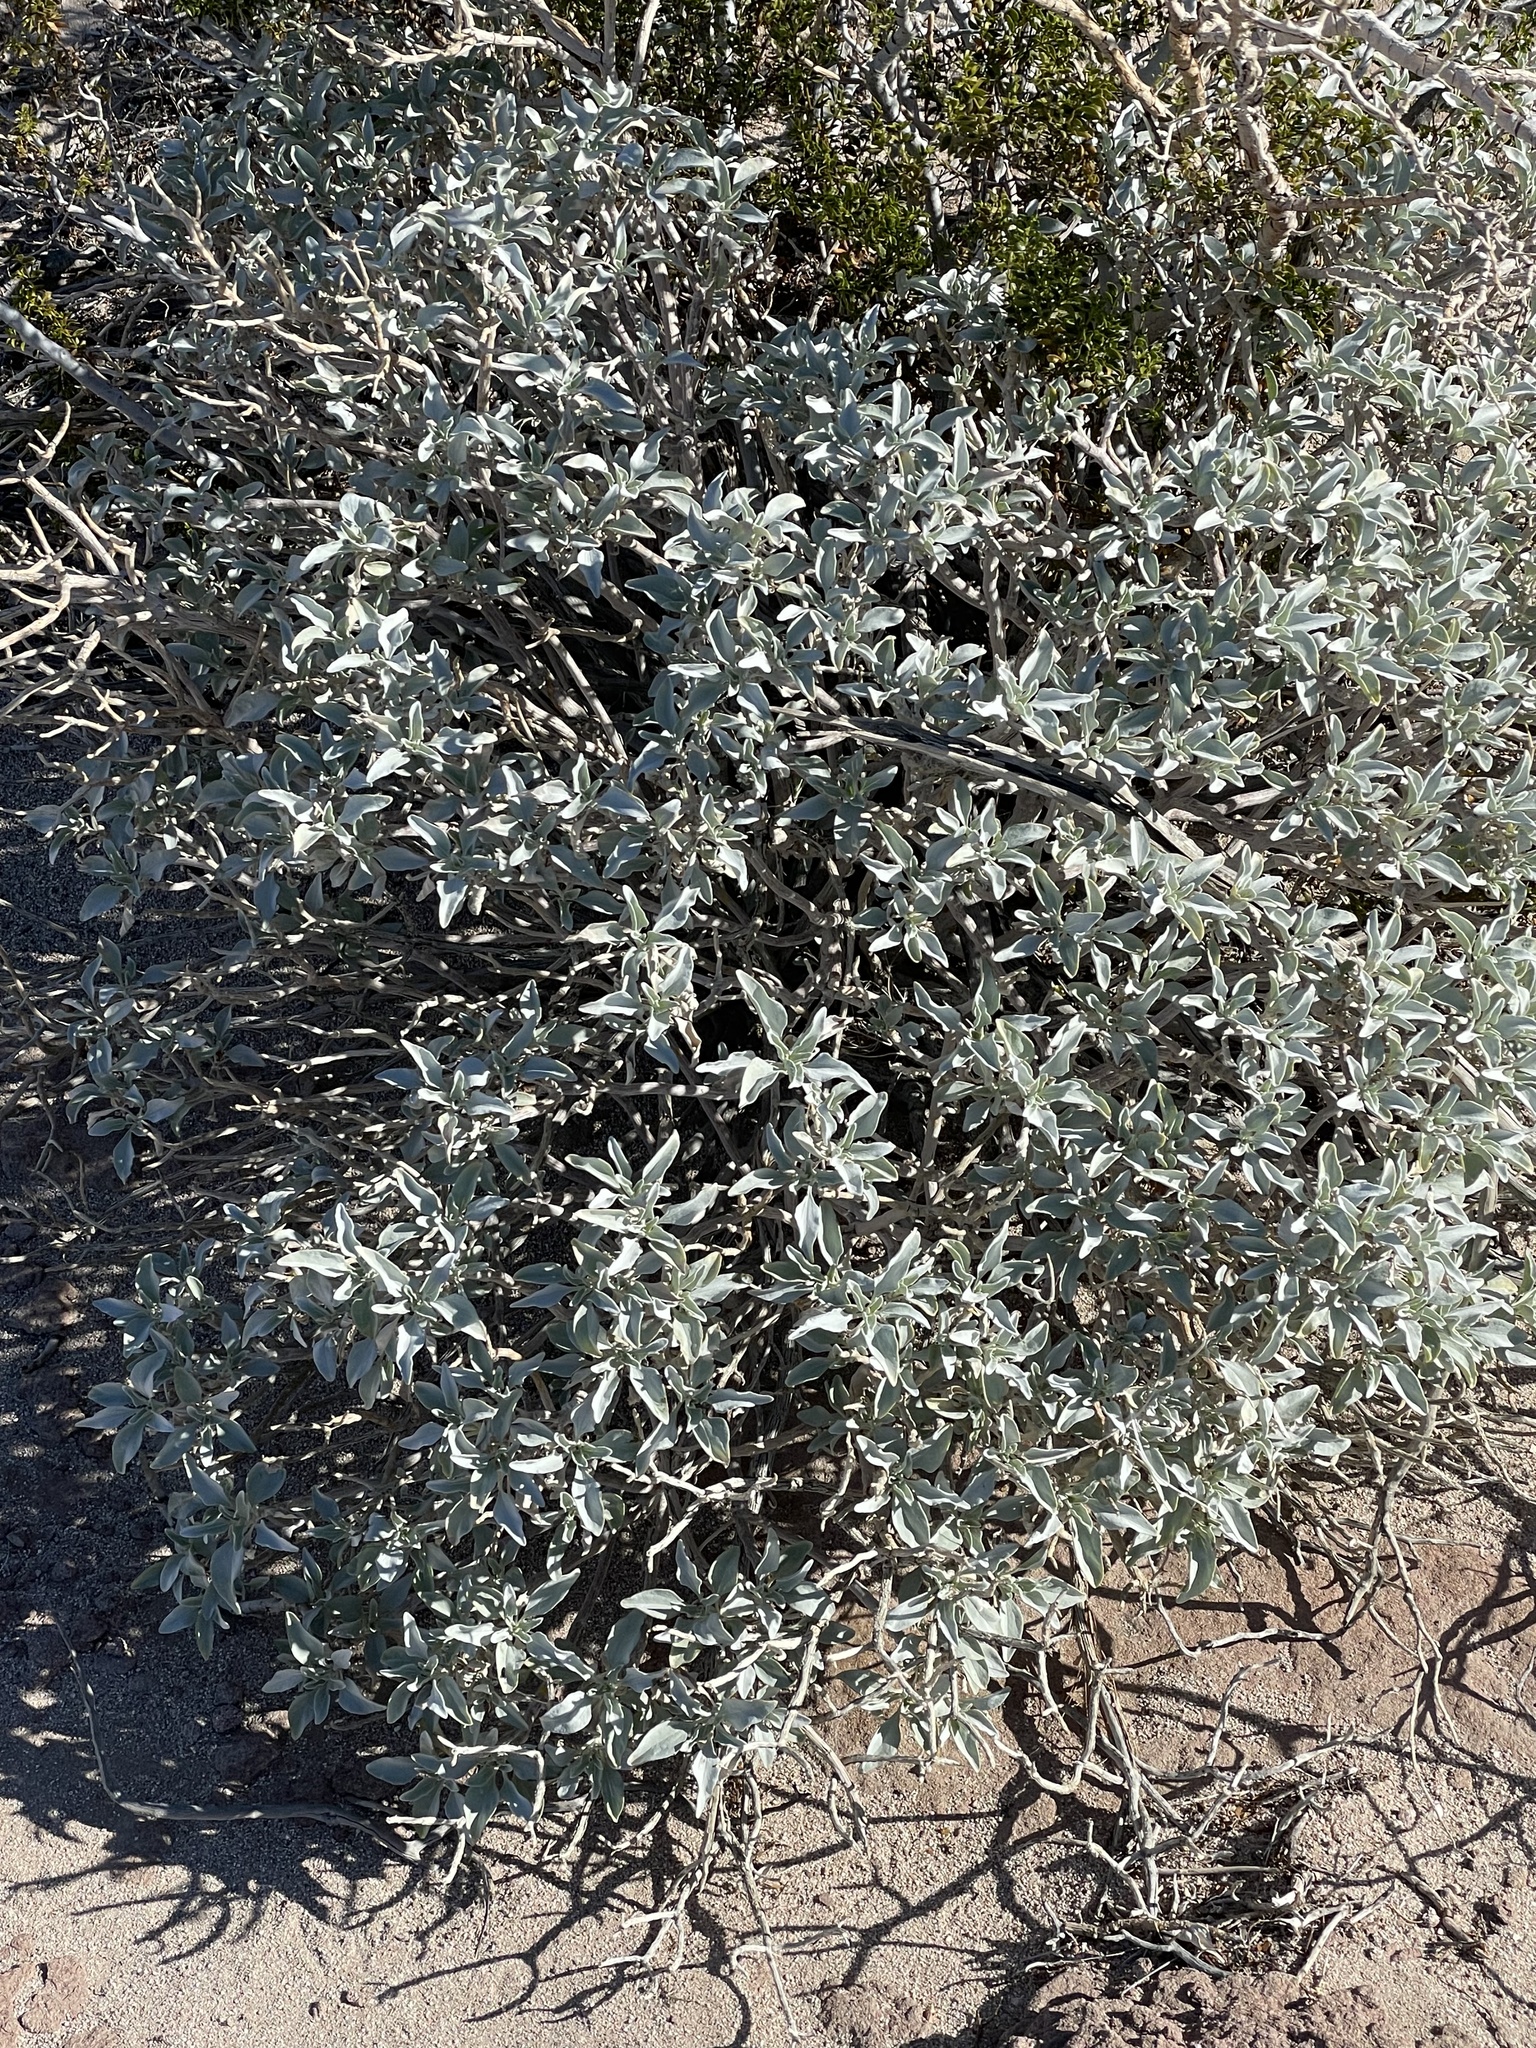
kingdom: Plantae
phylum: Tracheophyta
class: Magnoliopsida
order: Asterales
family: Asteraceae
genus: Encelia
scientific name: Encelia farinosa
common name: Brittlebush
